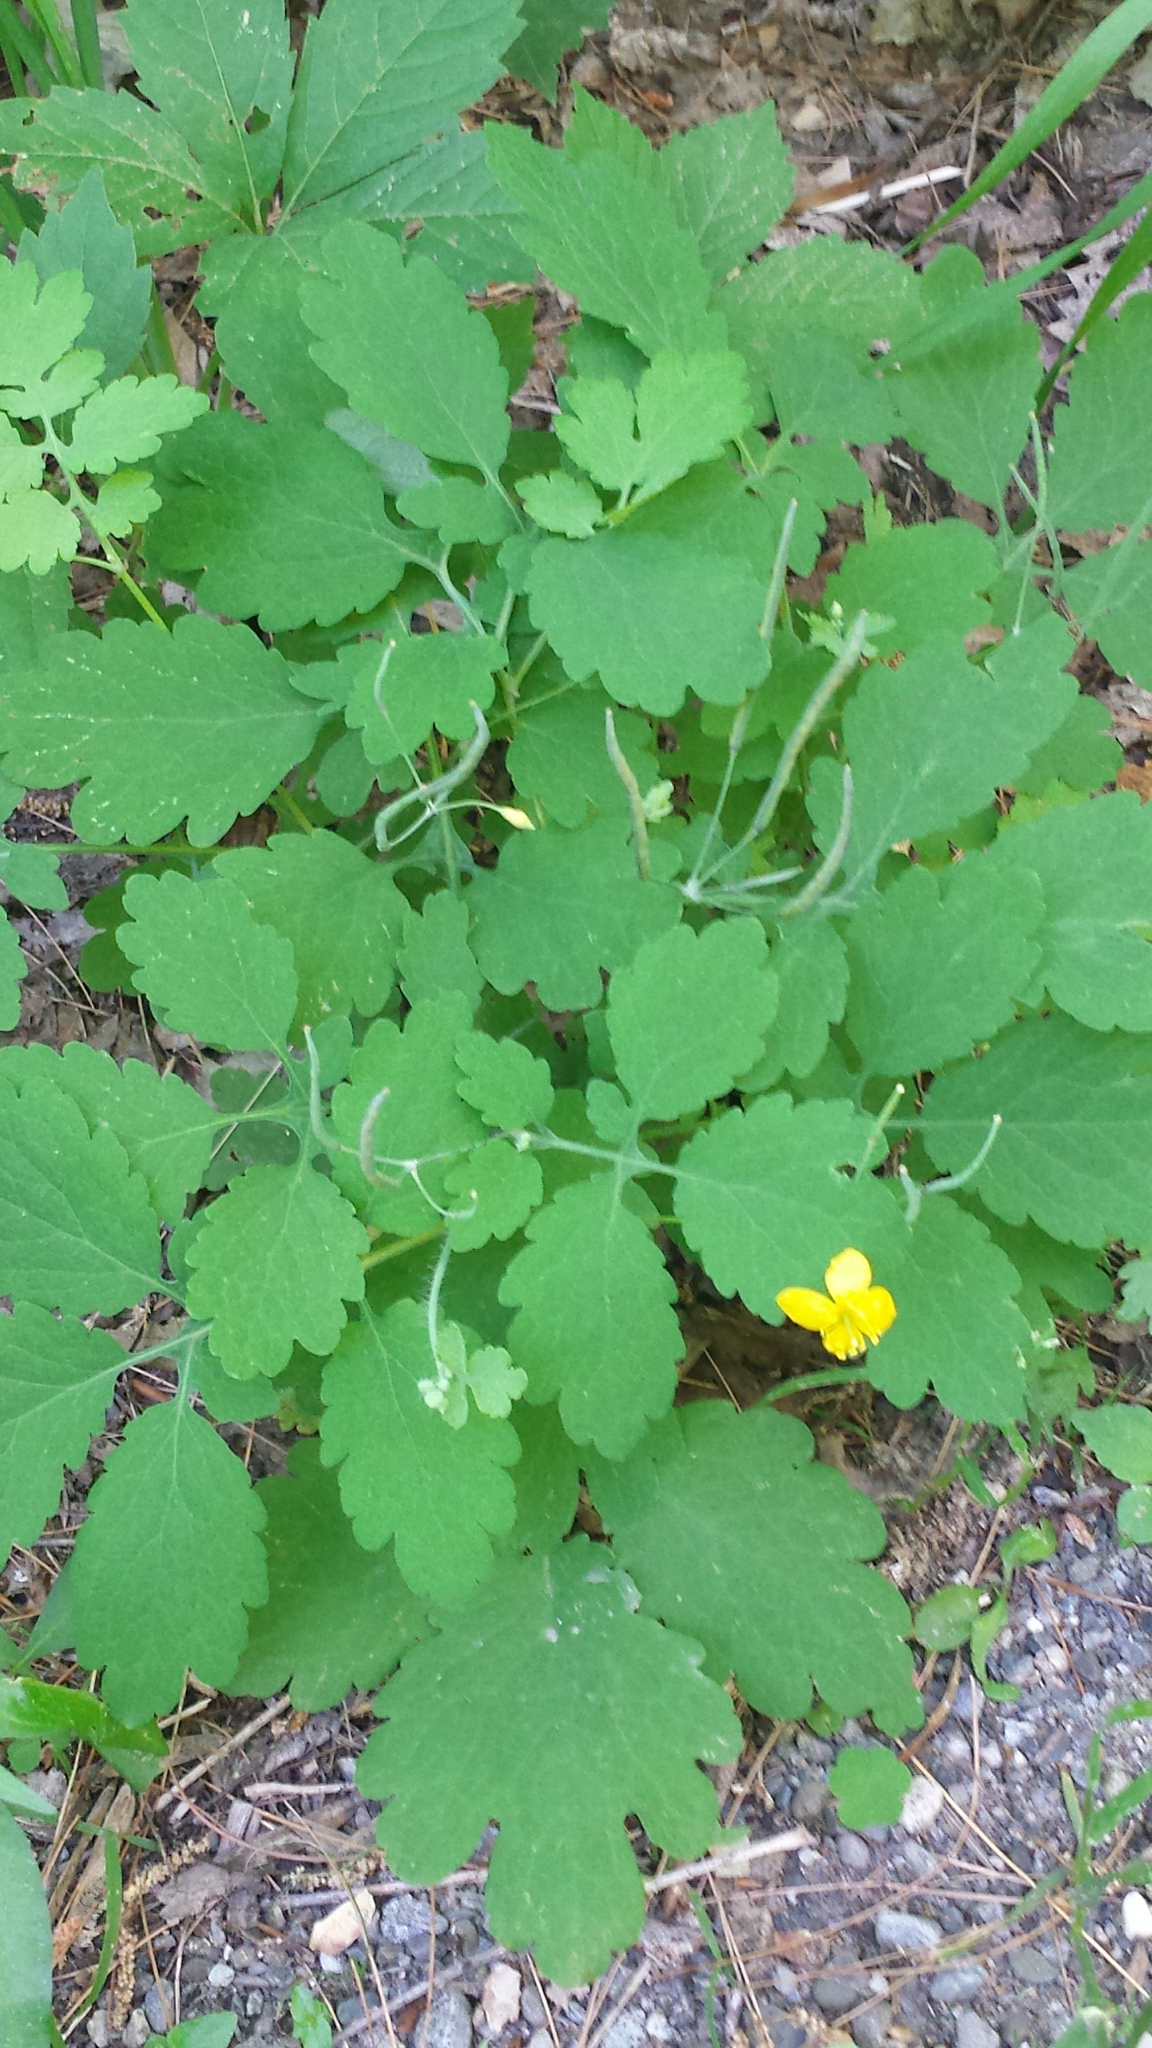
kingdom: Plantae
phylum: Tracheophyta
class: Magnoliopsida
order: Ranunculales
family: Papaveraceae
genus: Chelidonium
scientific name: Chelidonium majus
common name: Greater celandine
